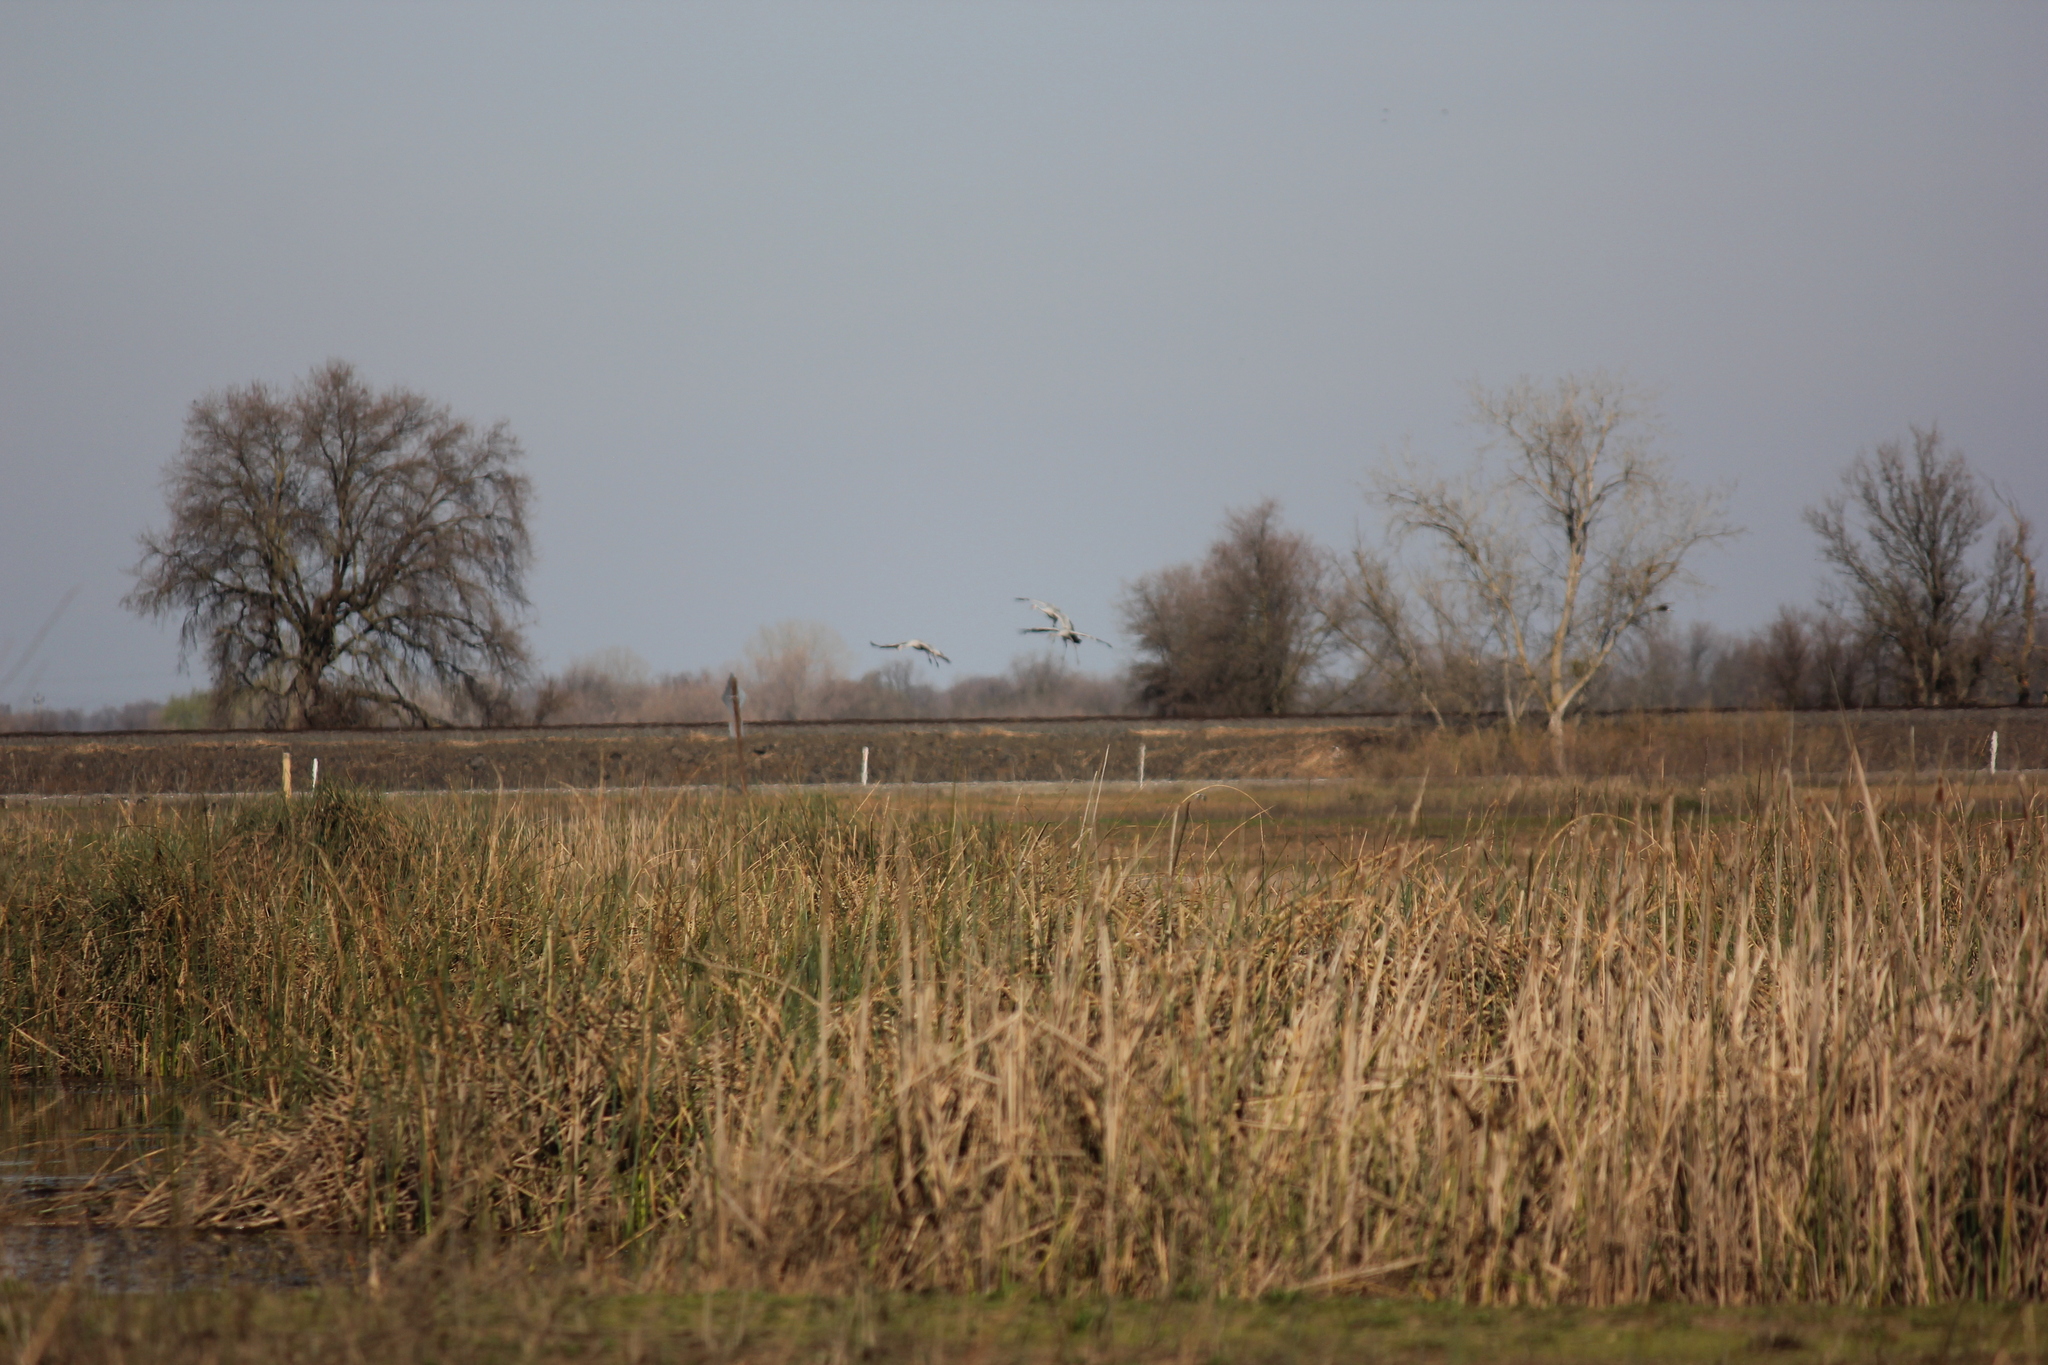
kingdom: Animalia
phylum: Chordata
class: Aves
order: Gruiformes
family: Gruidae
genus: Grus
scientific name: Grus canadensis
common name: Sandhill crane
